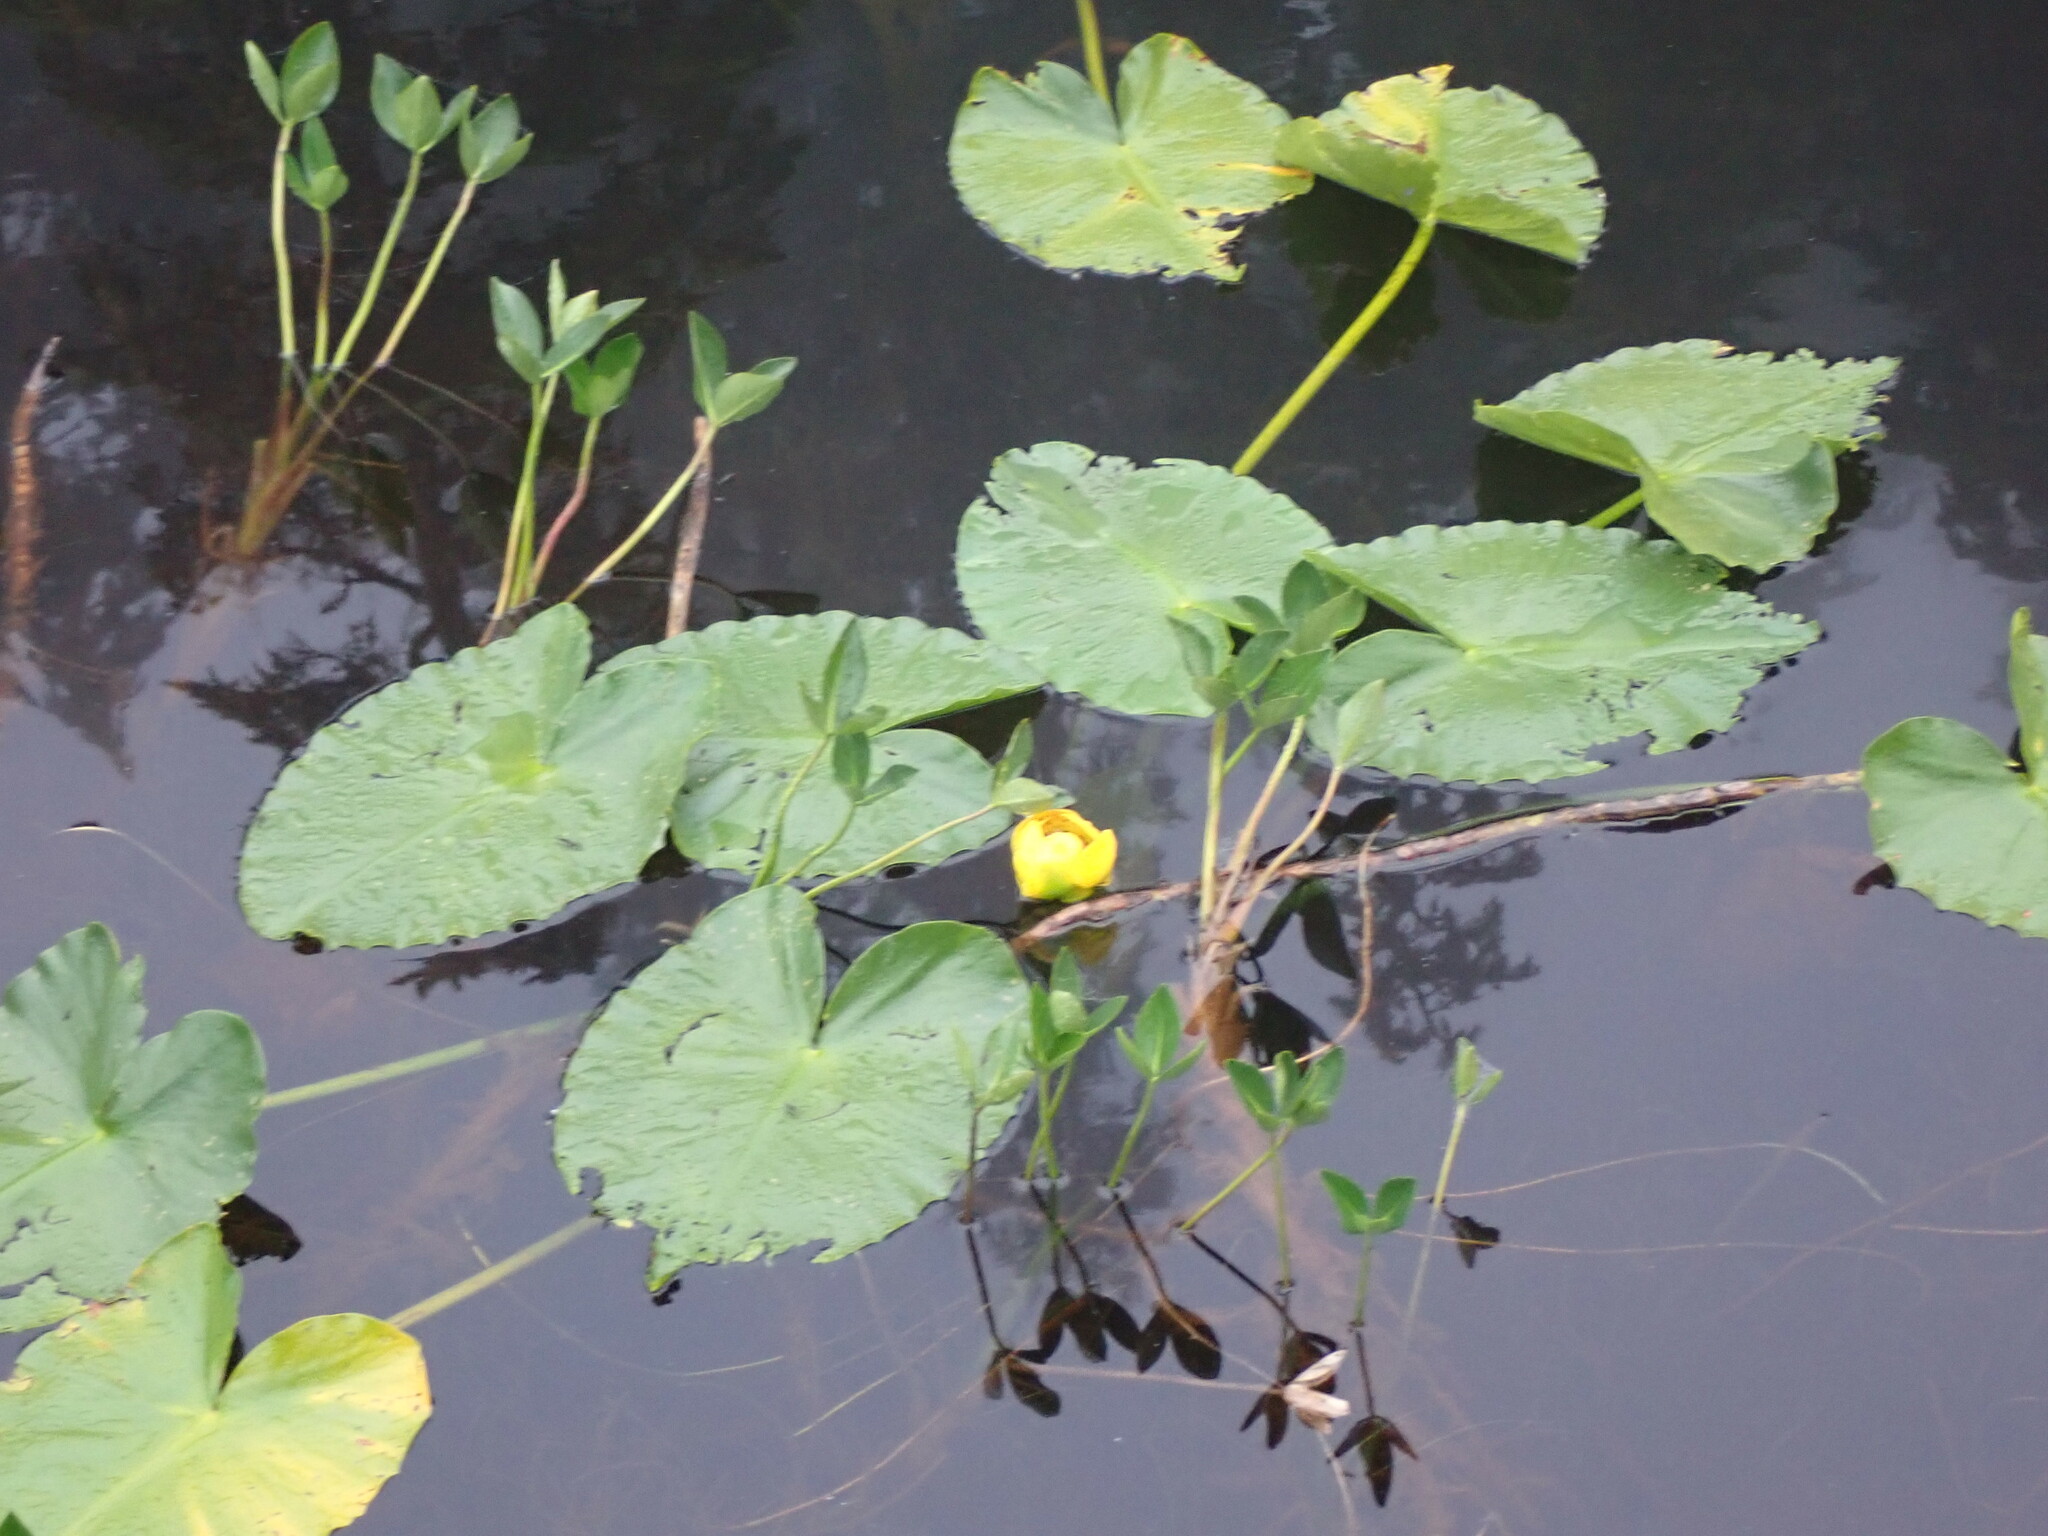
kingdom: Plantae
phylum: Tracheophyta
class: Magnoliopsida
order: Nymphaeales
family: Nymphaeaceae
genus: Nuphar
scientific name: Nuphar polysepala
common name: Rocky mountain cow-lily
